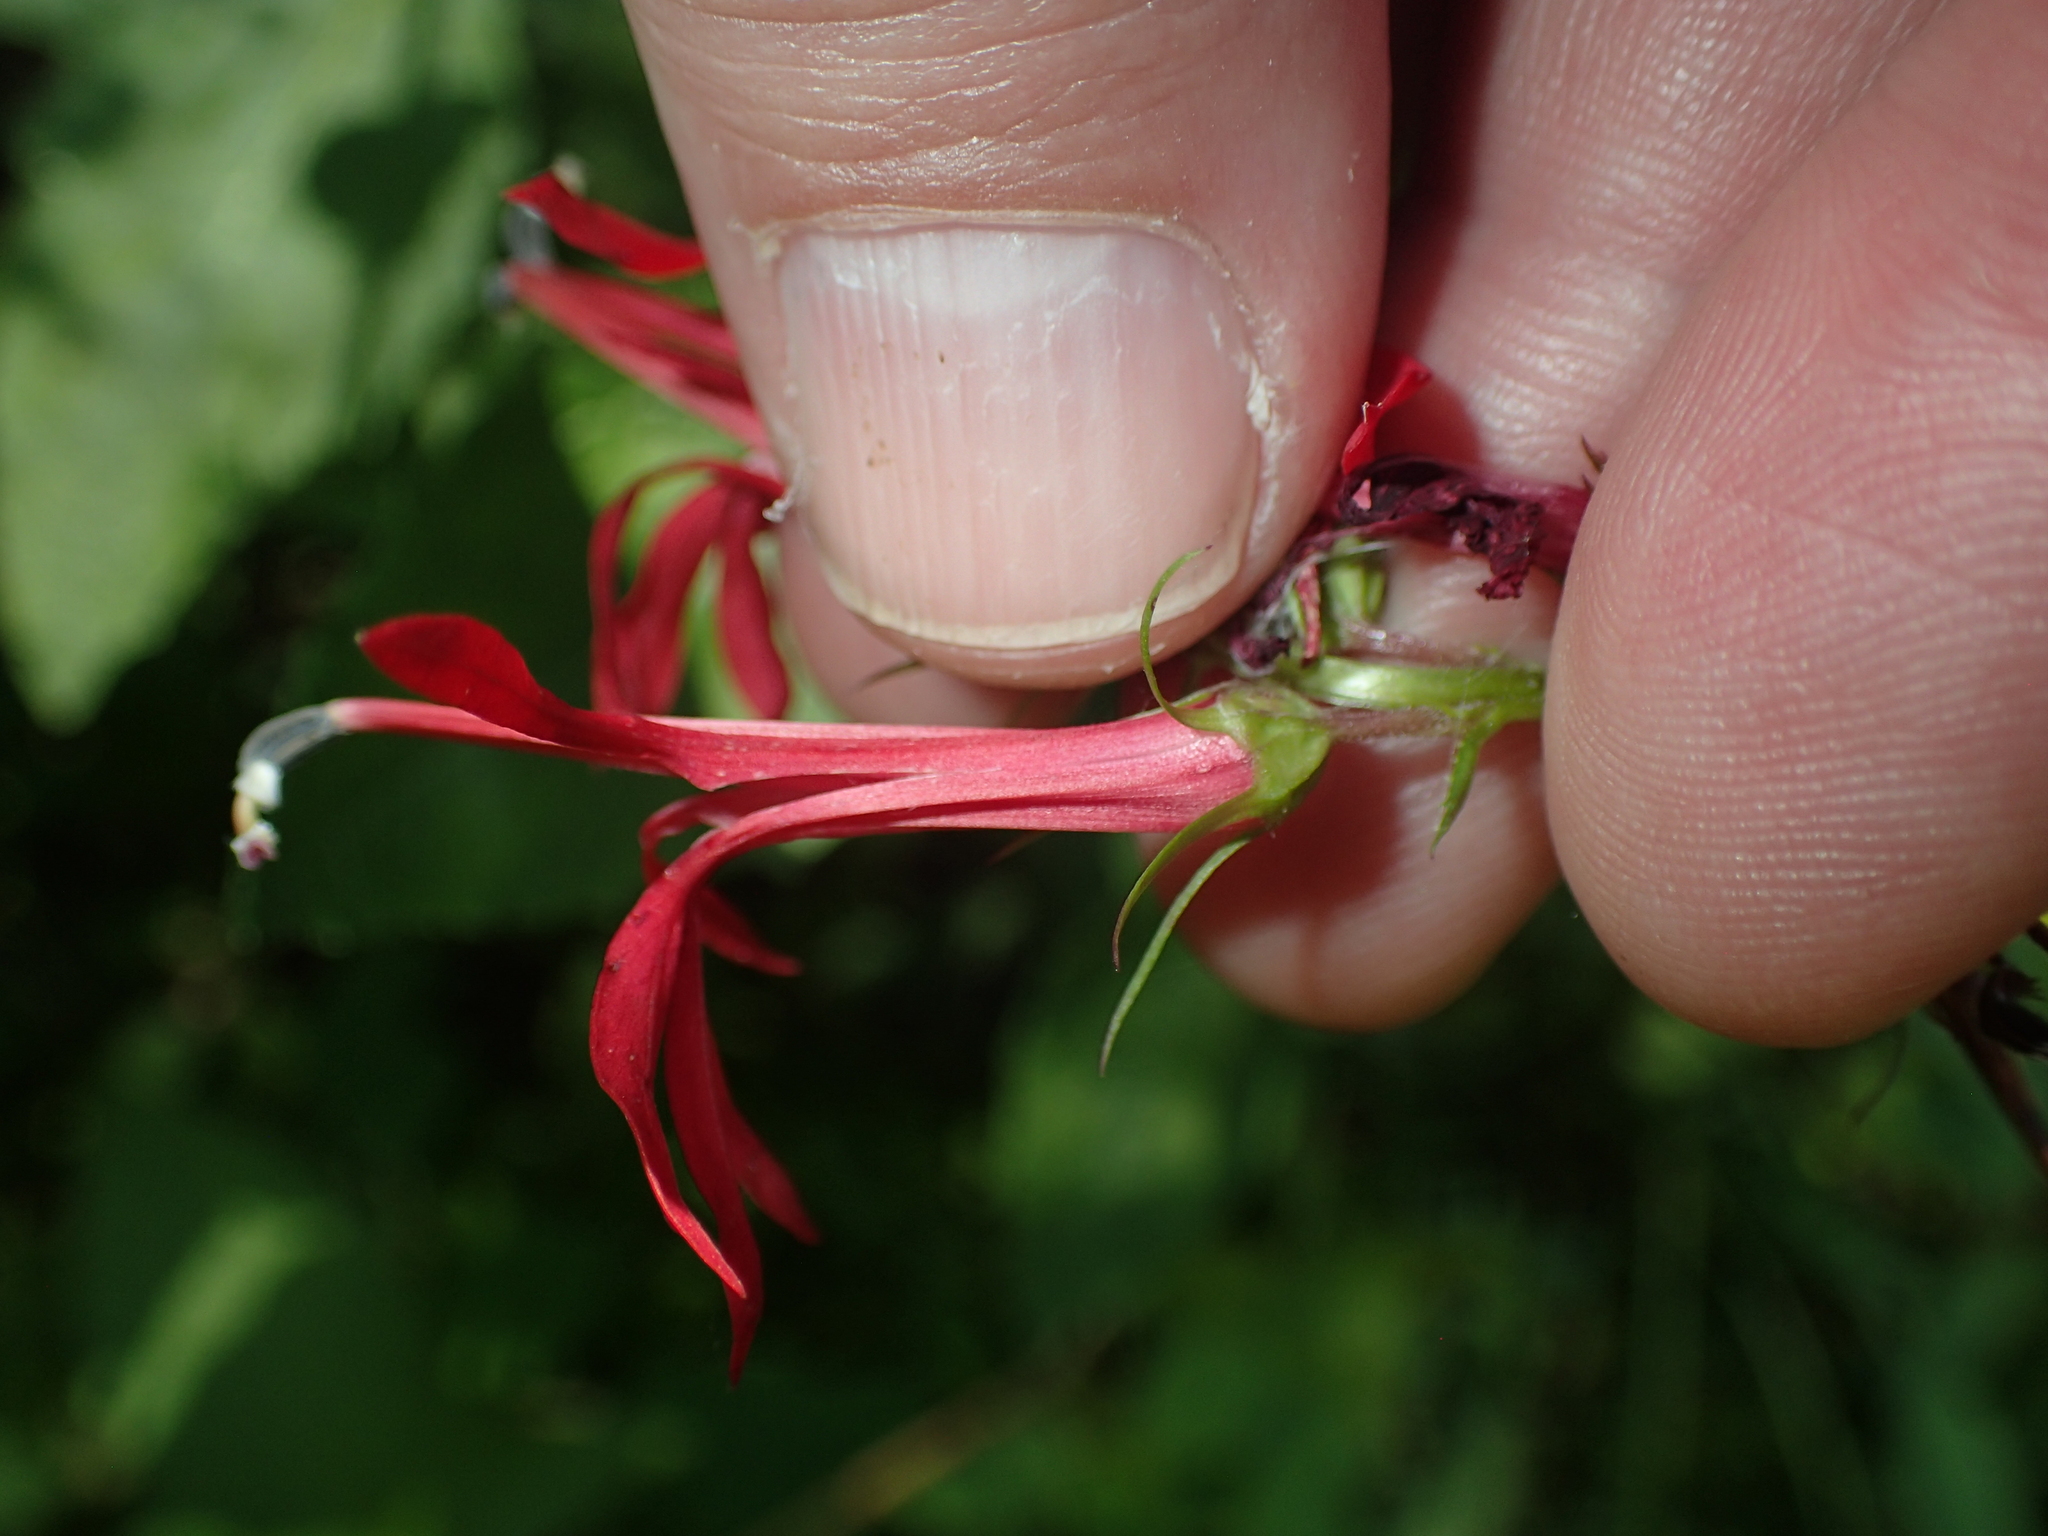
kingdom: Plantae
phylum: Tracheophyta
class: Magnoliopsida
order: Asterales
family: Campanulaceae
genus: Lobelia
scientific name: Lobelia cardinalis
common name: Cardinal flower
